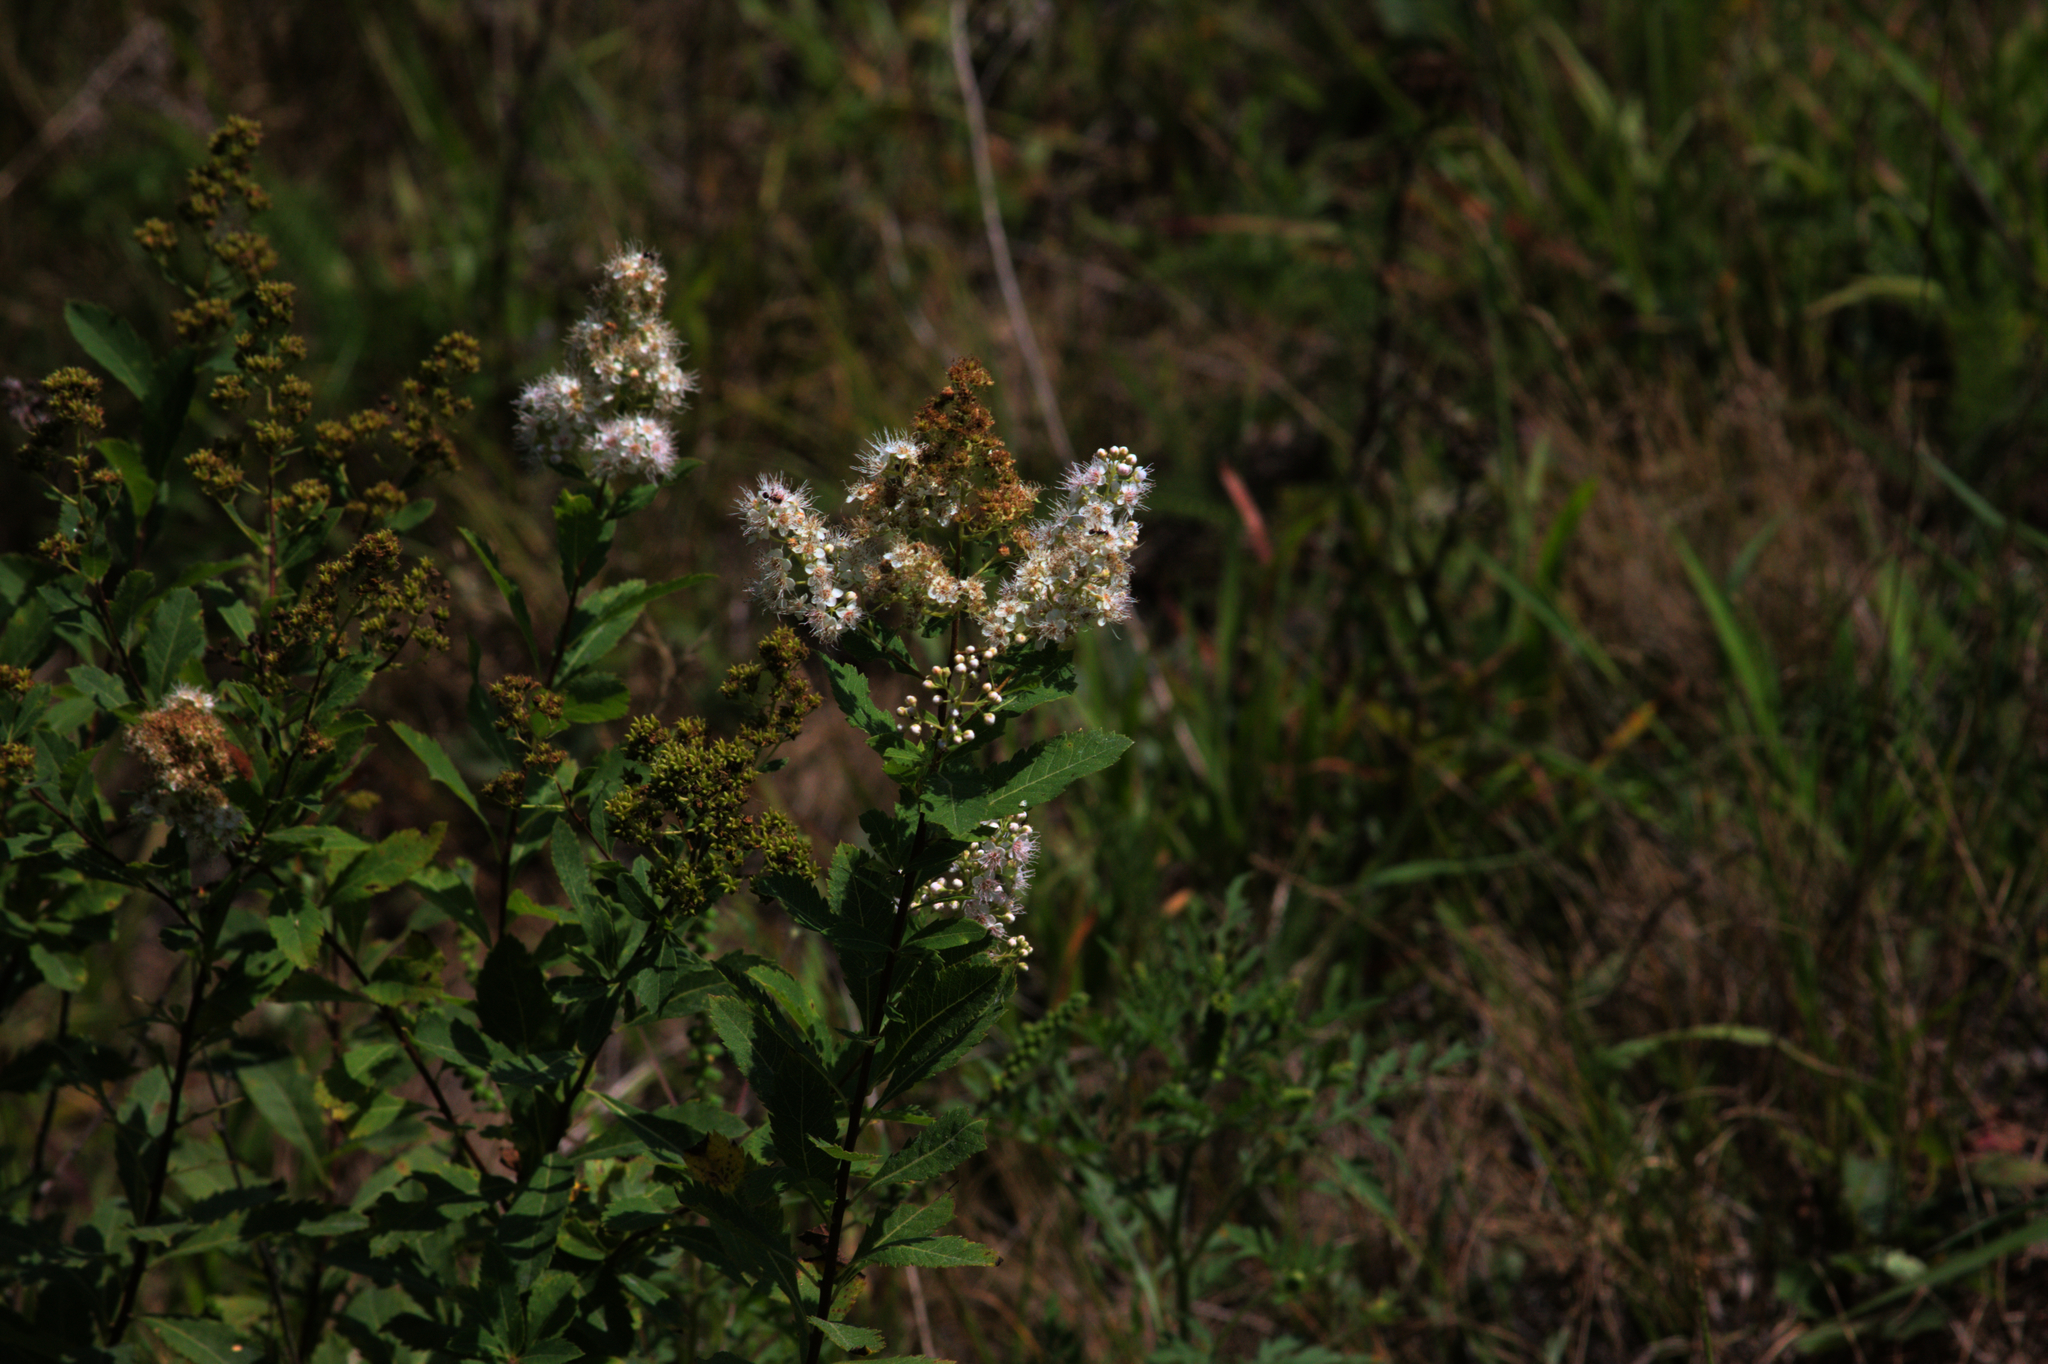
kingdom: Plantae
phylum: Tracheophyta
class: Magnoliopsida
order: Rosales
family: Rosaceae
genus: Spiraea
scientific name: Spiraea alba
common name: Pale bridewort
